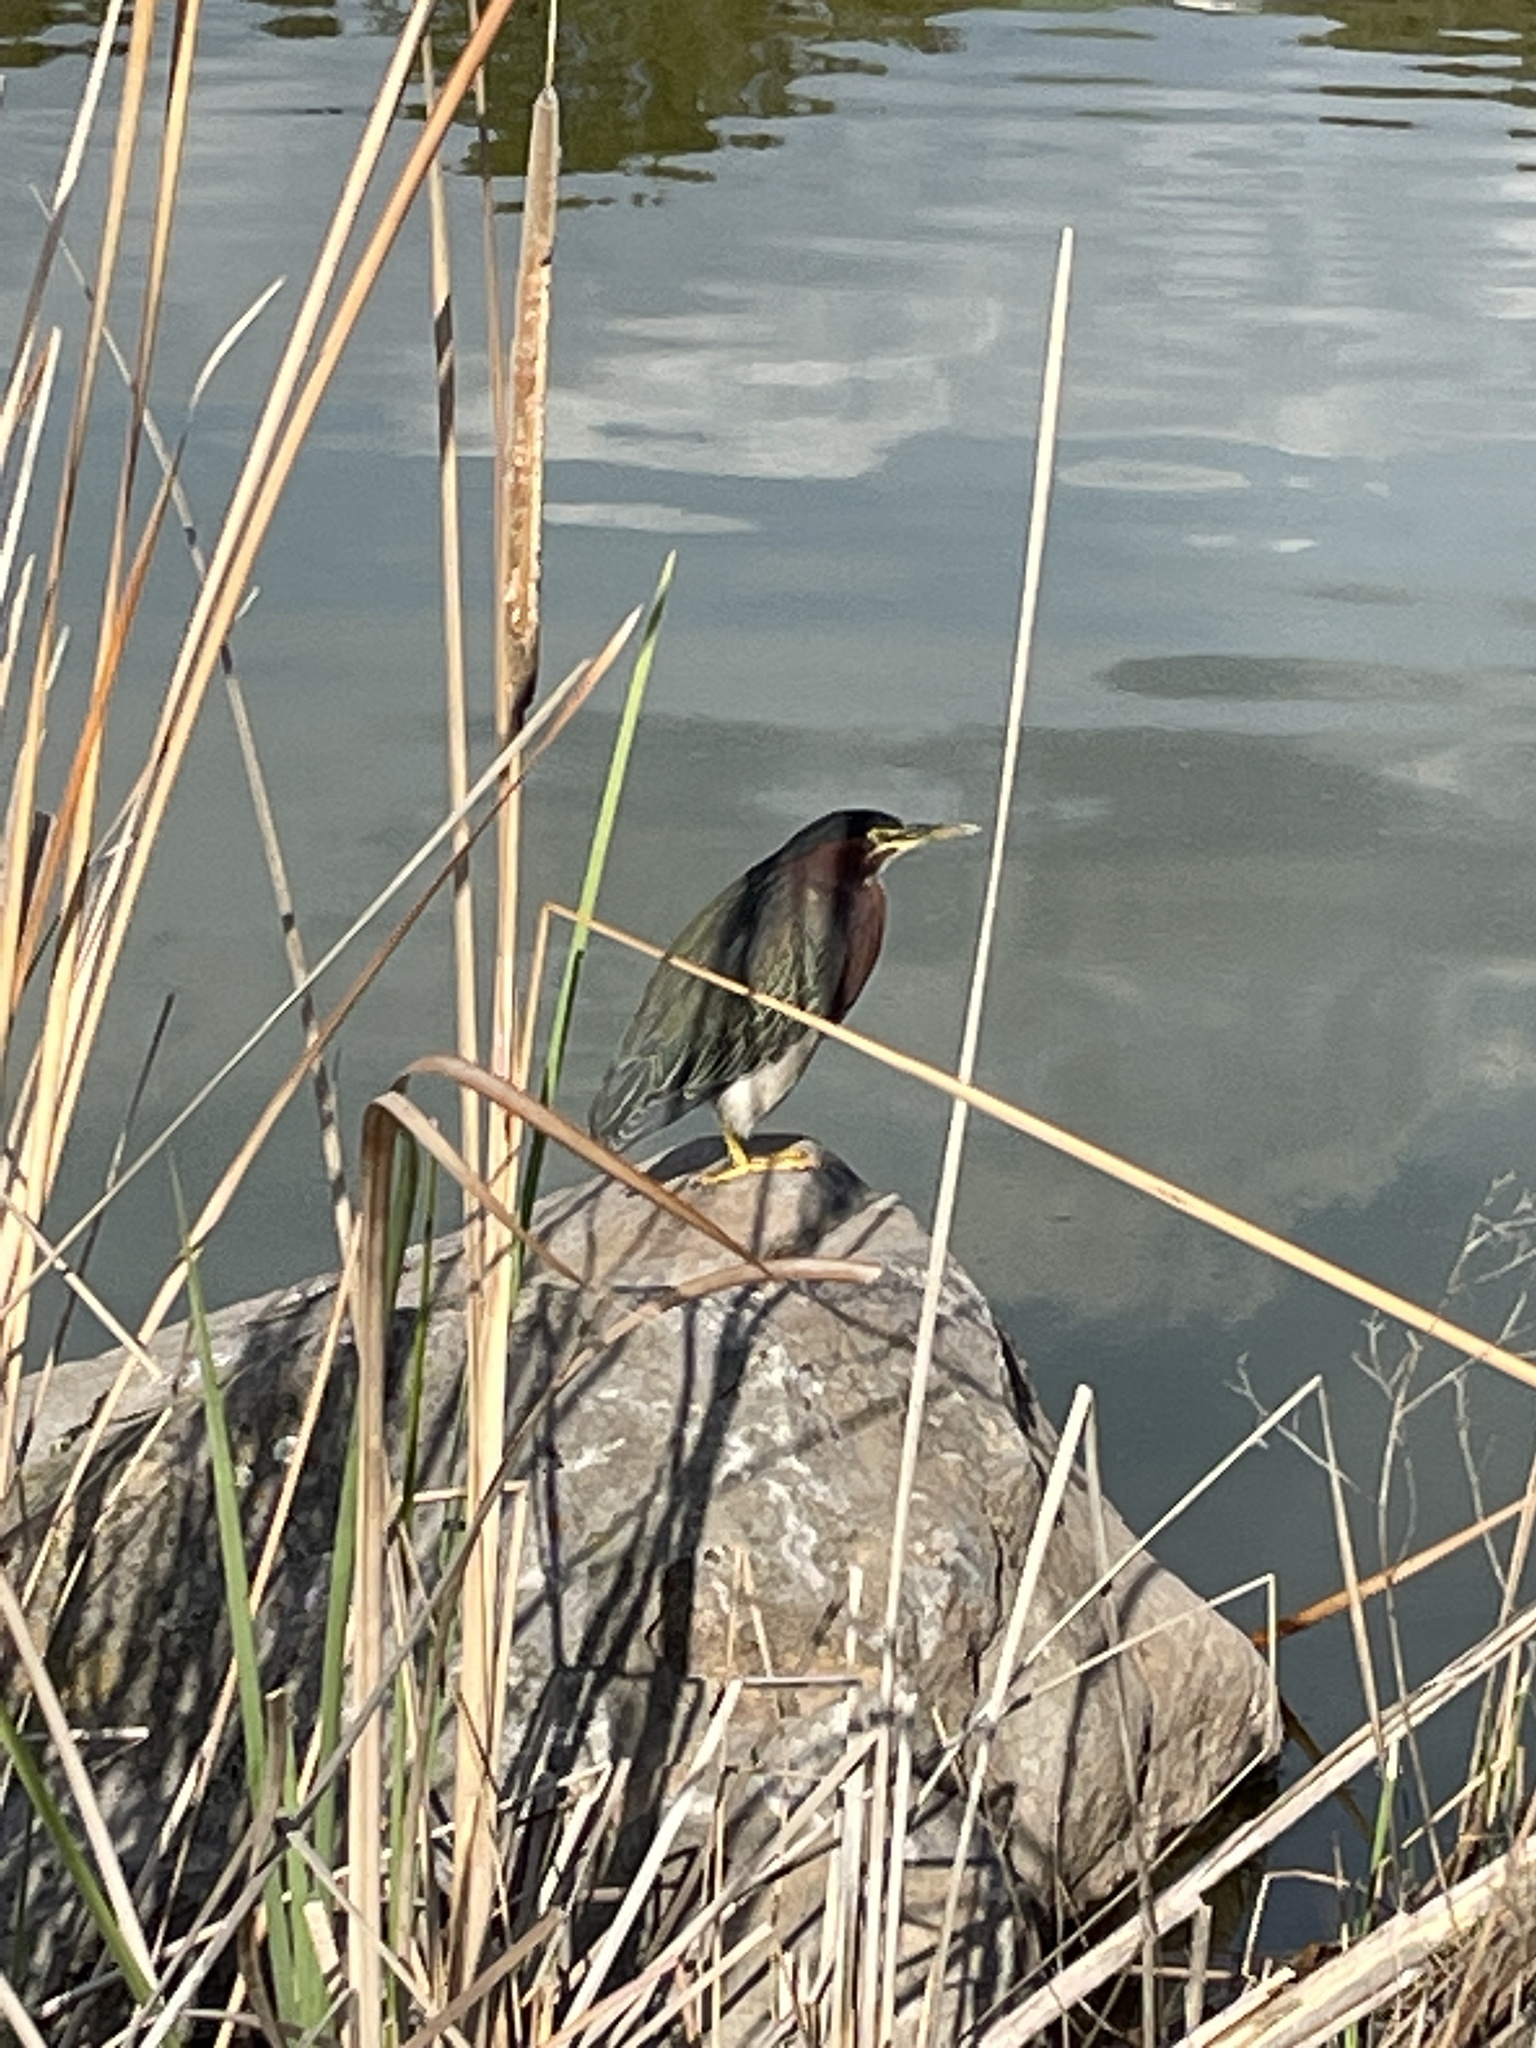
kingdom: Animalia
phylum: Chordata
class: Aves
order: Pelecaniformes
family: Ardeidae
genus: Butorides
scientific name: Butorides virescens
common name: Green heron
